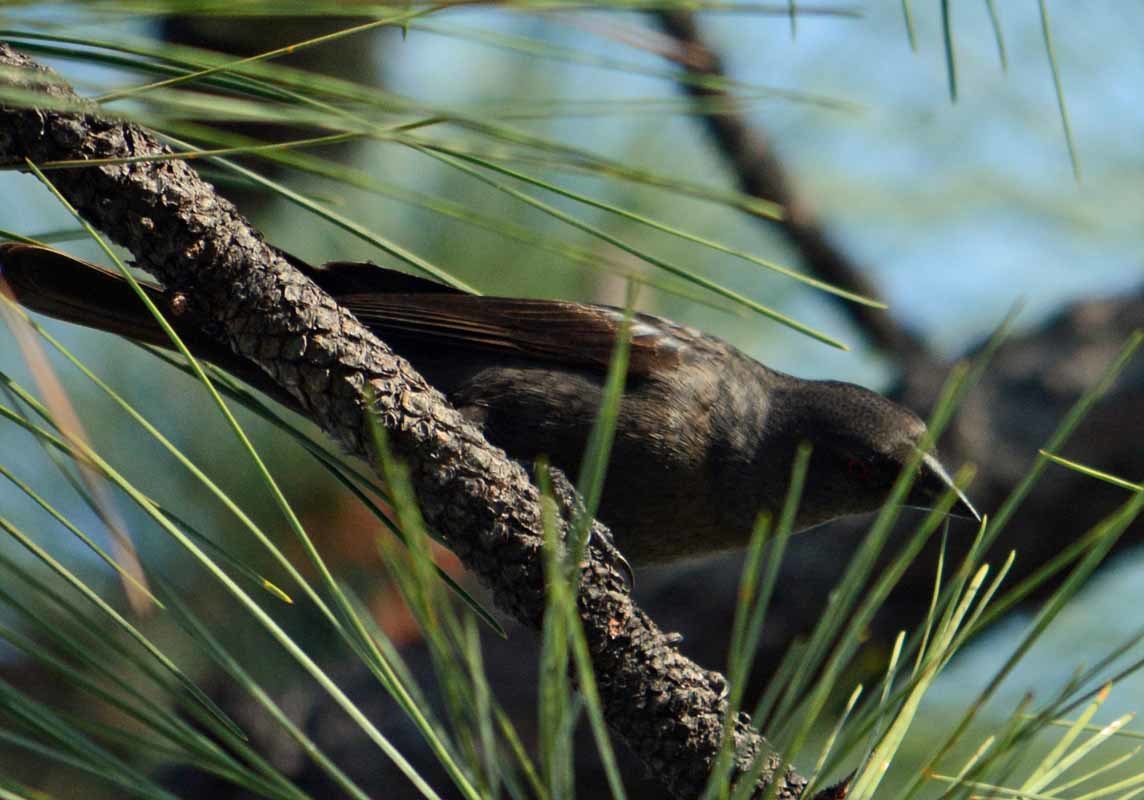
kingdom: Animalia
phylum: Chordata
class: Aves
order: Passeriformes
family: Icteridae
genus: Molothrus
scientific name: Molothrus aeneus
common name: Bronzed cowbird
